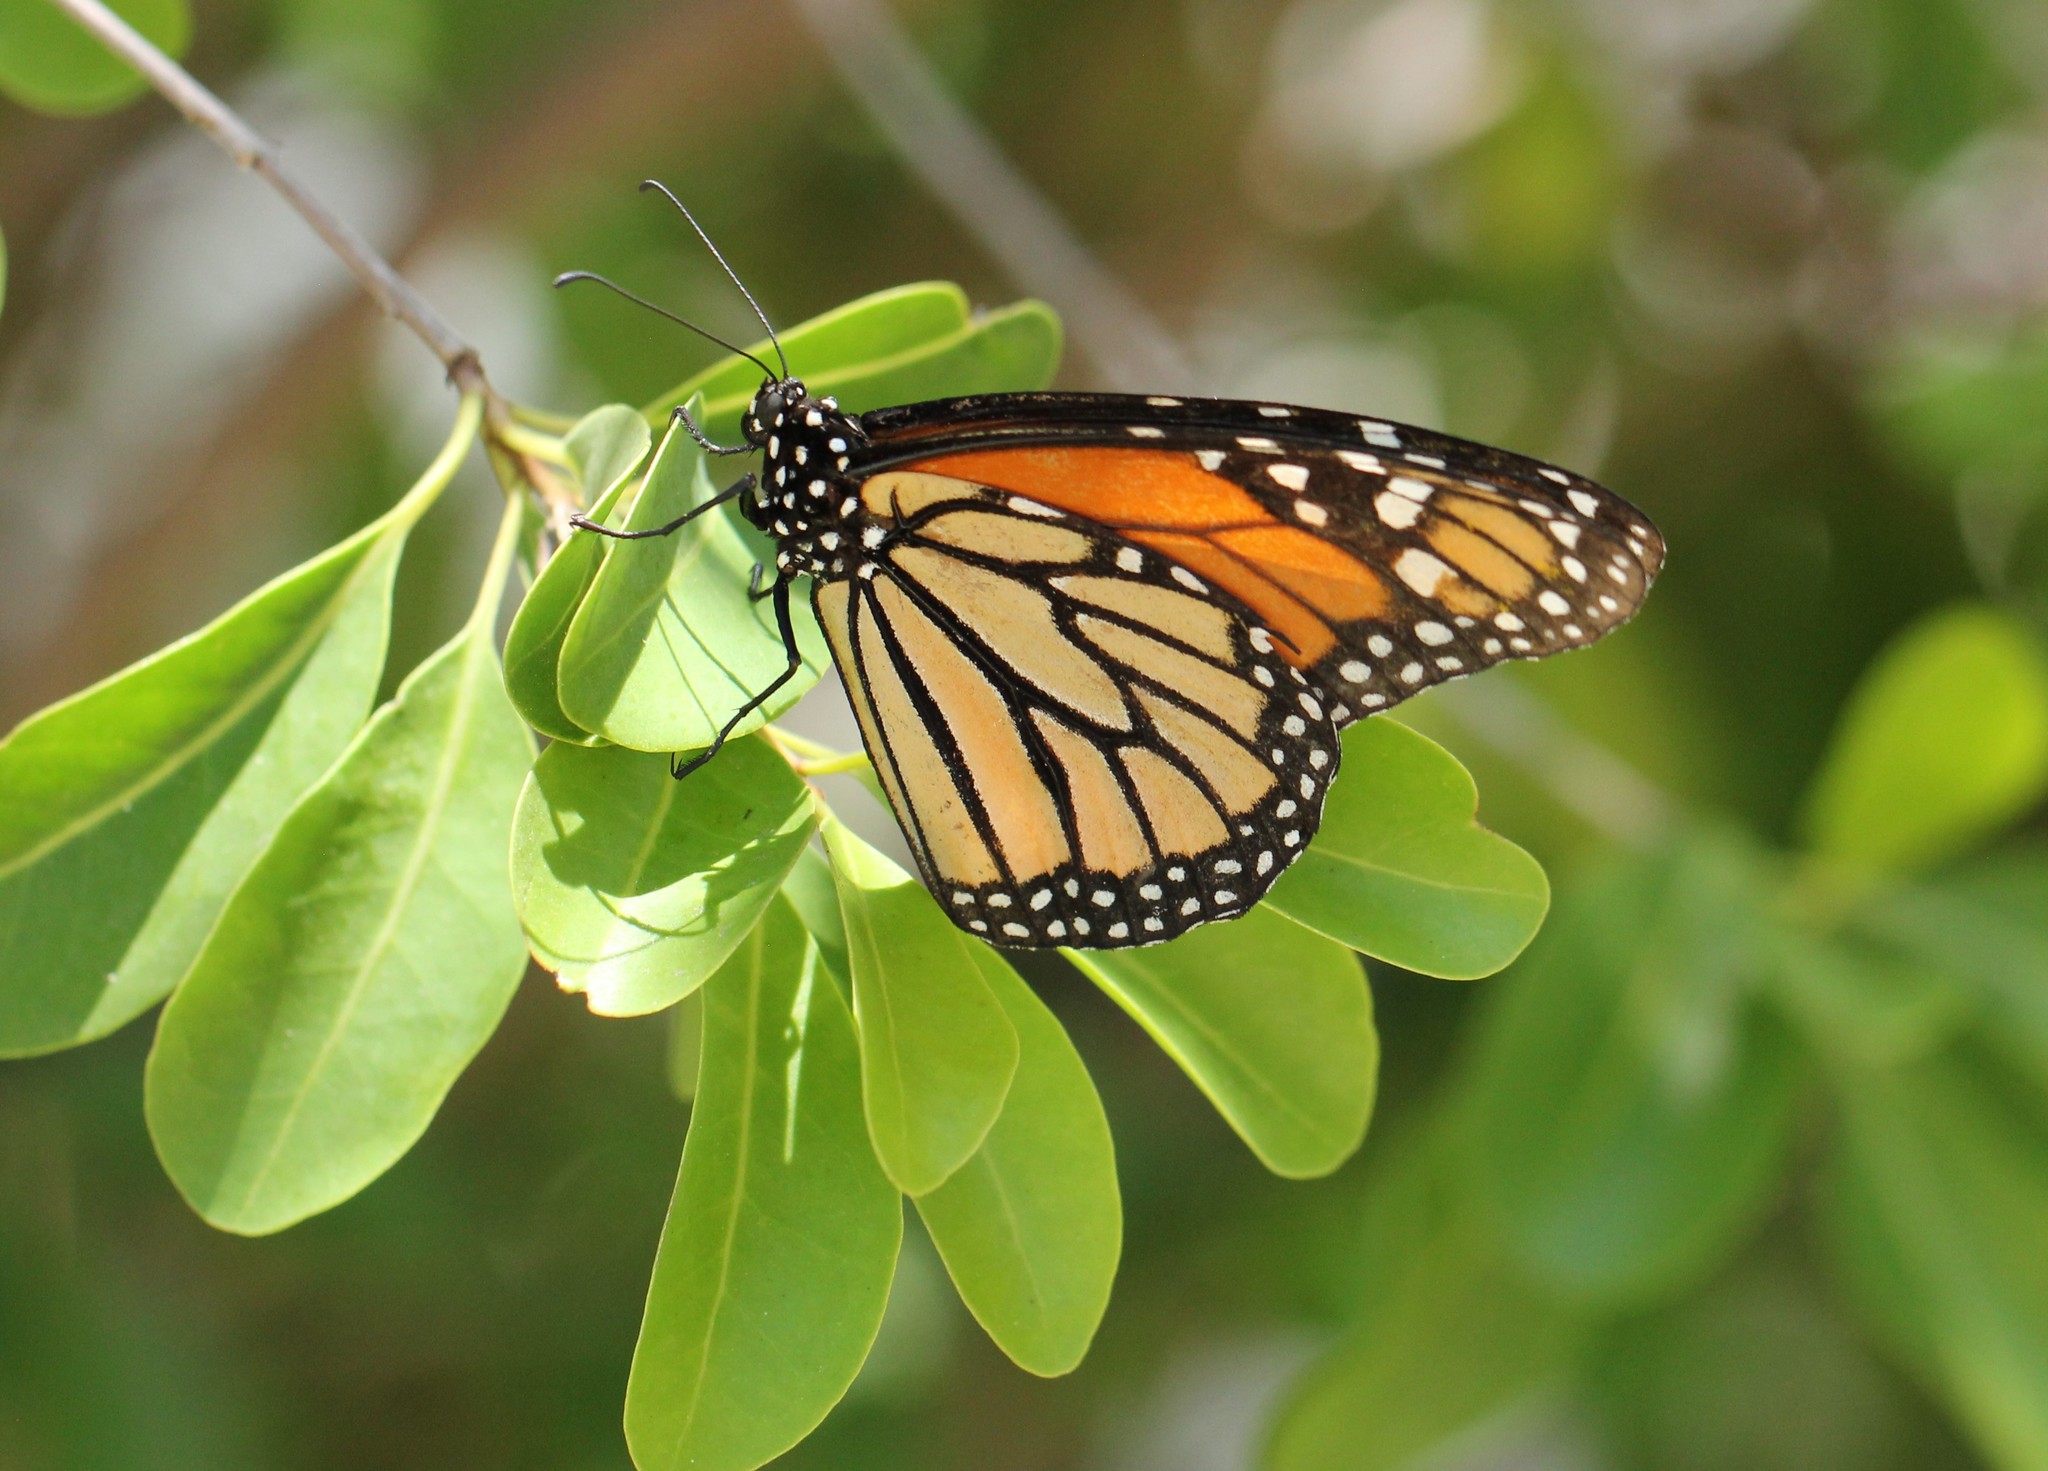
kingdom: Animalia
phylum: Arthropoda
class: Insecta
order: Lepidoptera
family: Nymphalidae
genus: Danaus
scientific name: Danaus plexippus
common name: Monarch
